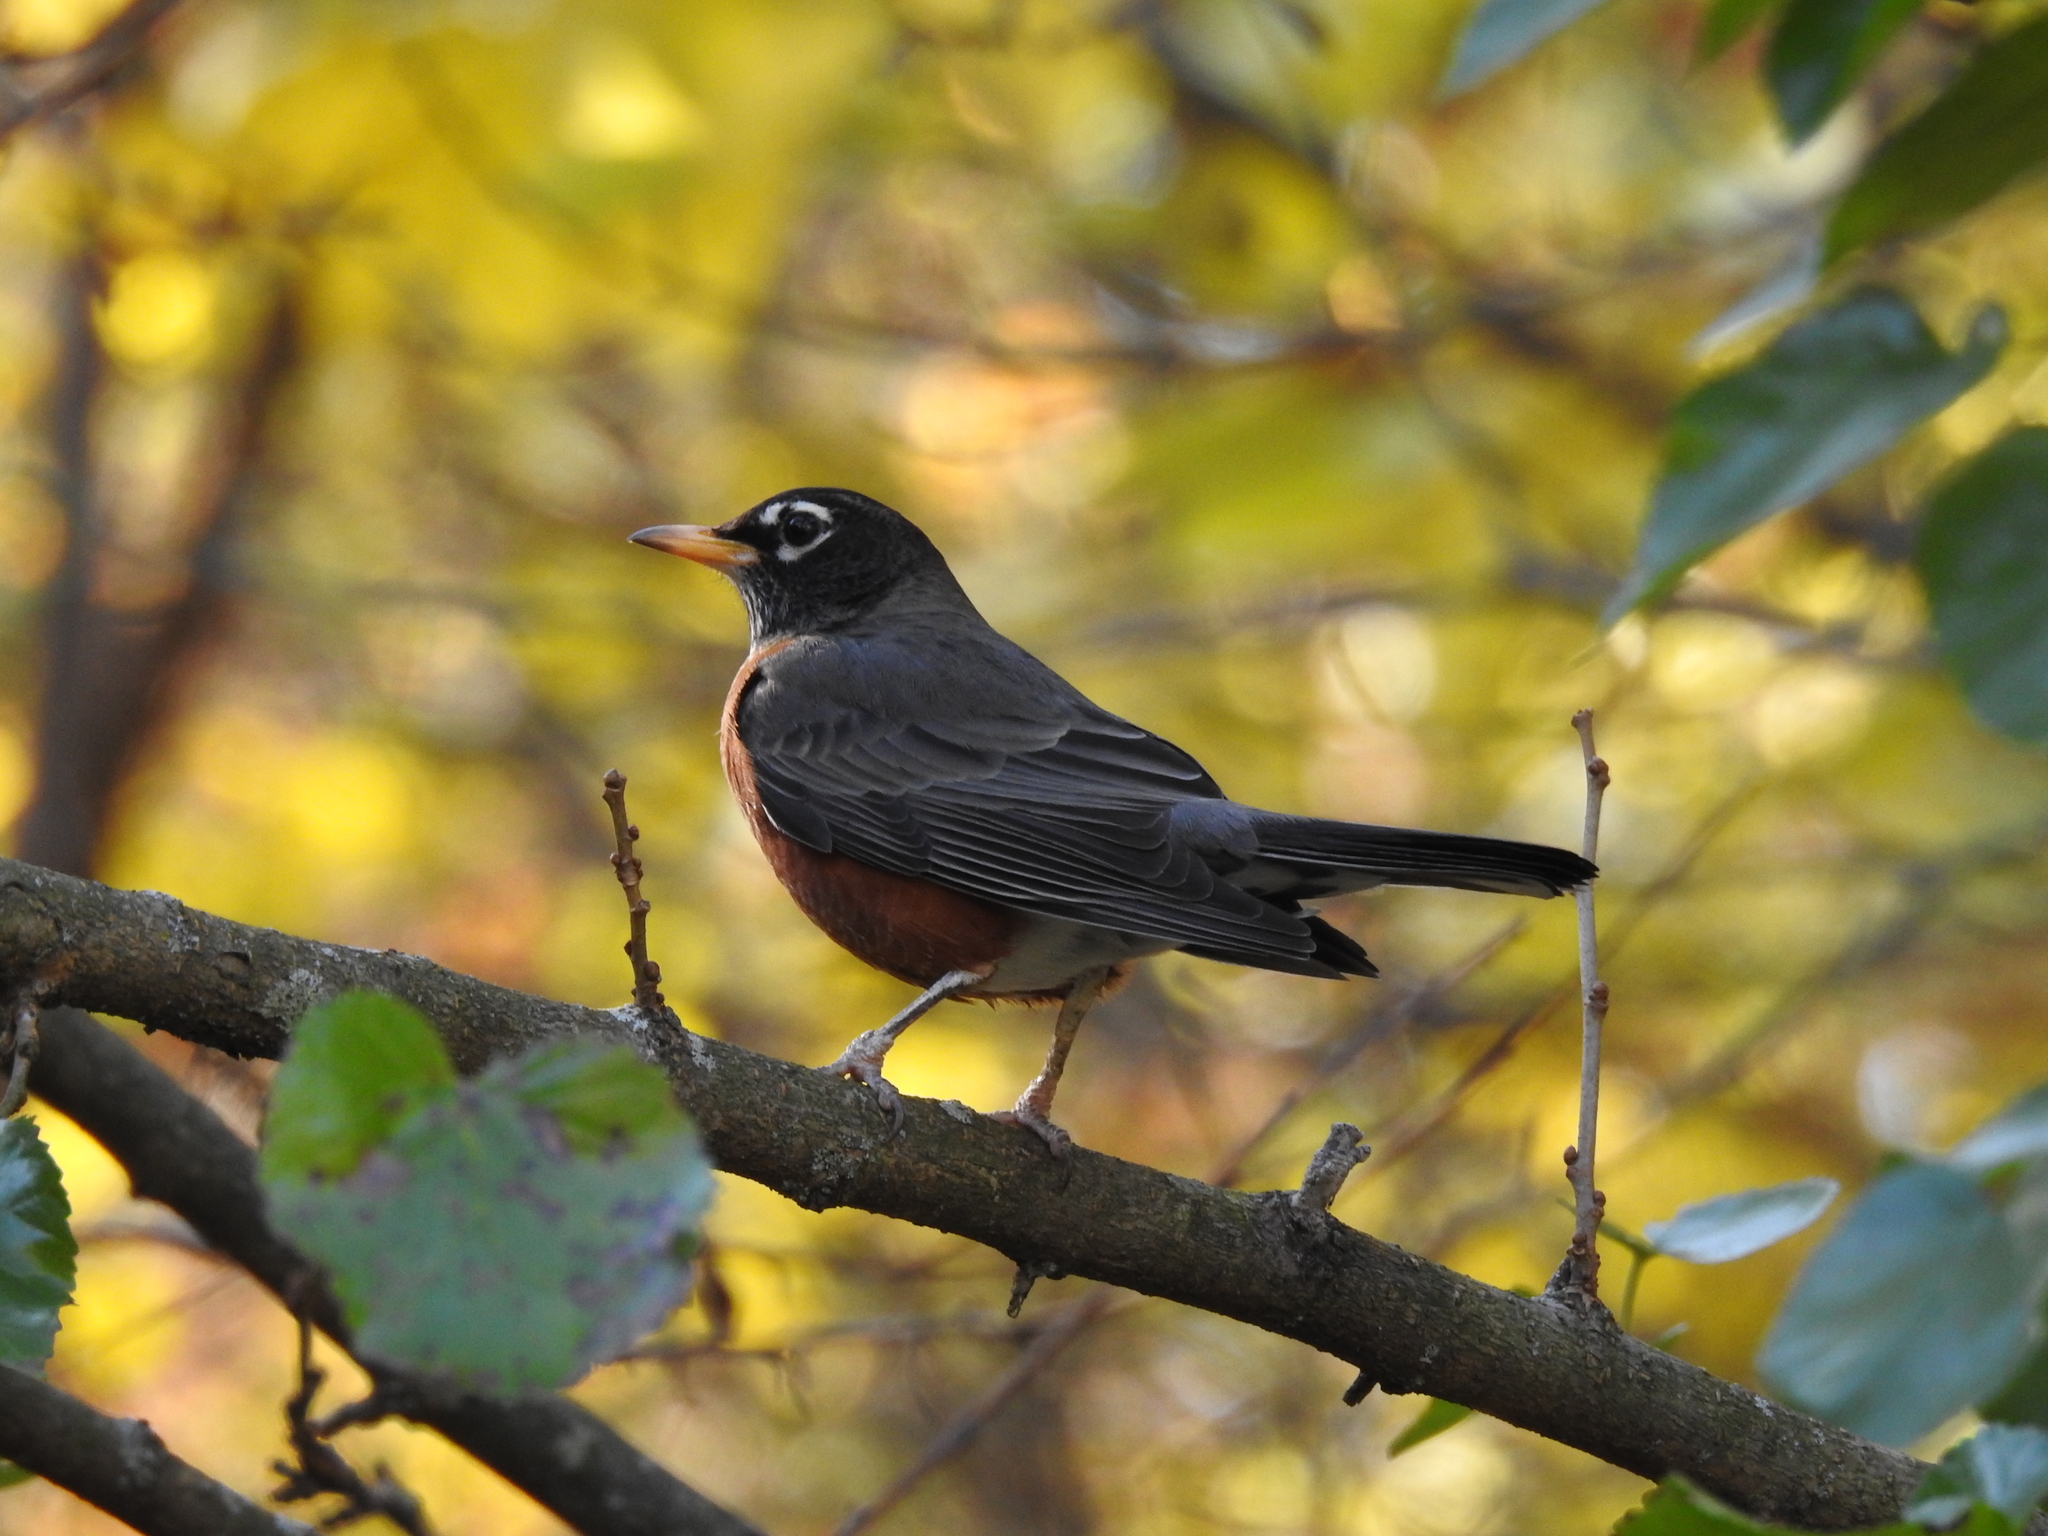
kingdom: Animalia
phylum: Chordata
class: Aves
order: Passeriformes
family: Turdidae
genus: Turdus
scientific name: Turdus migratorius
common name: American robin
